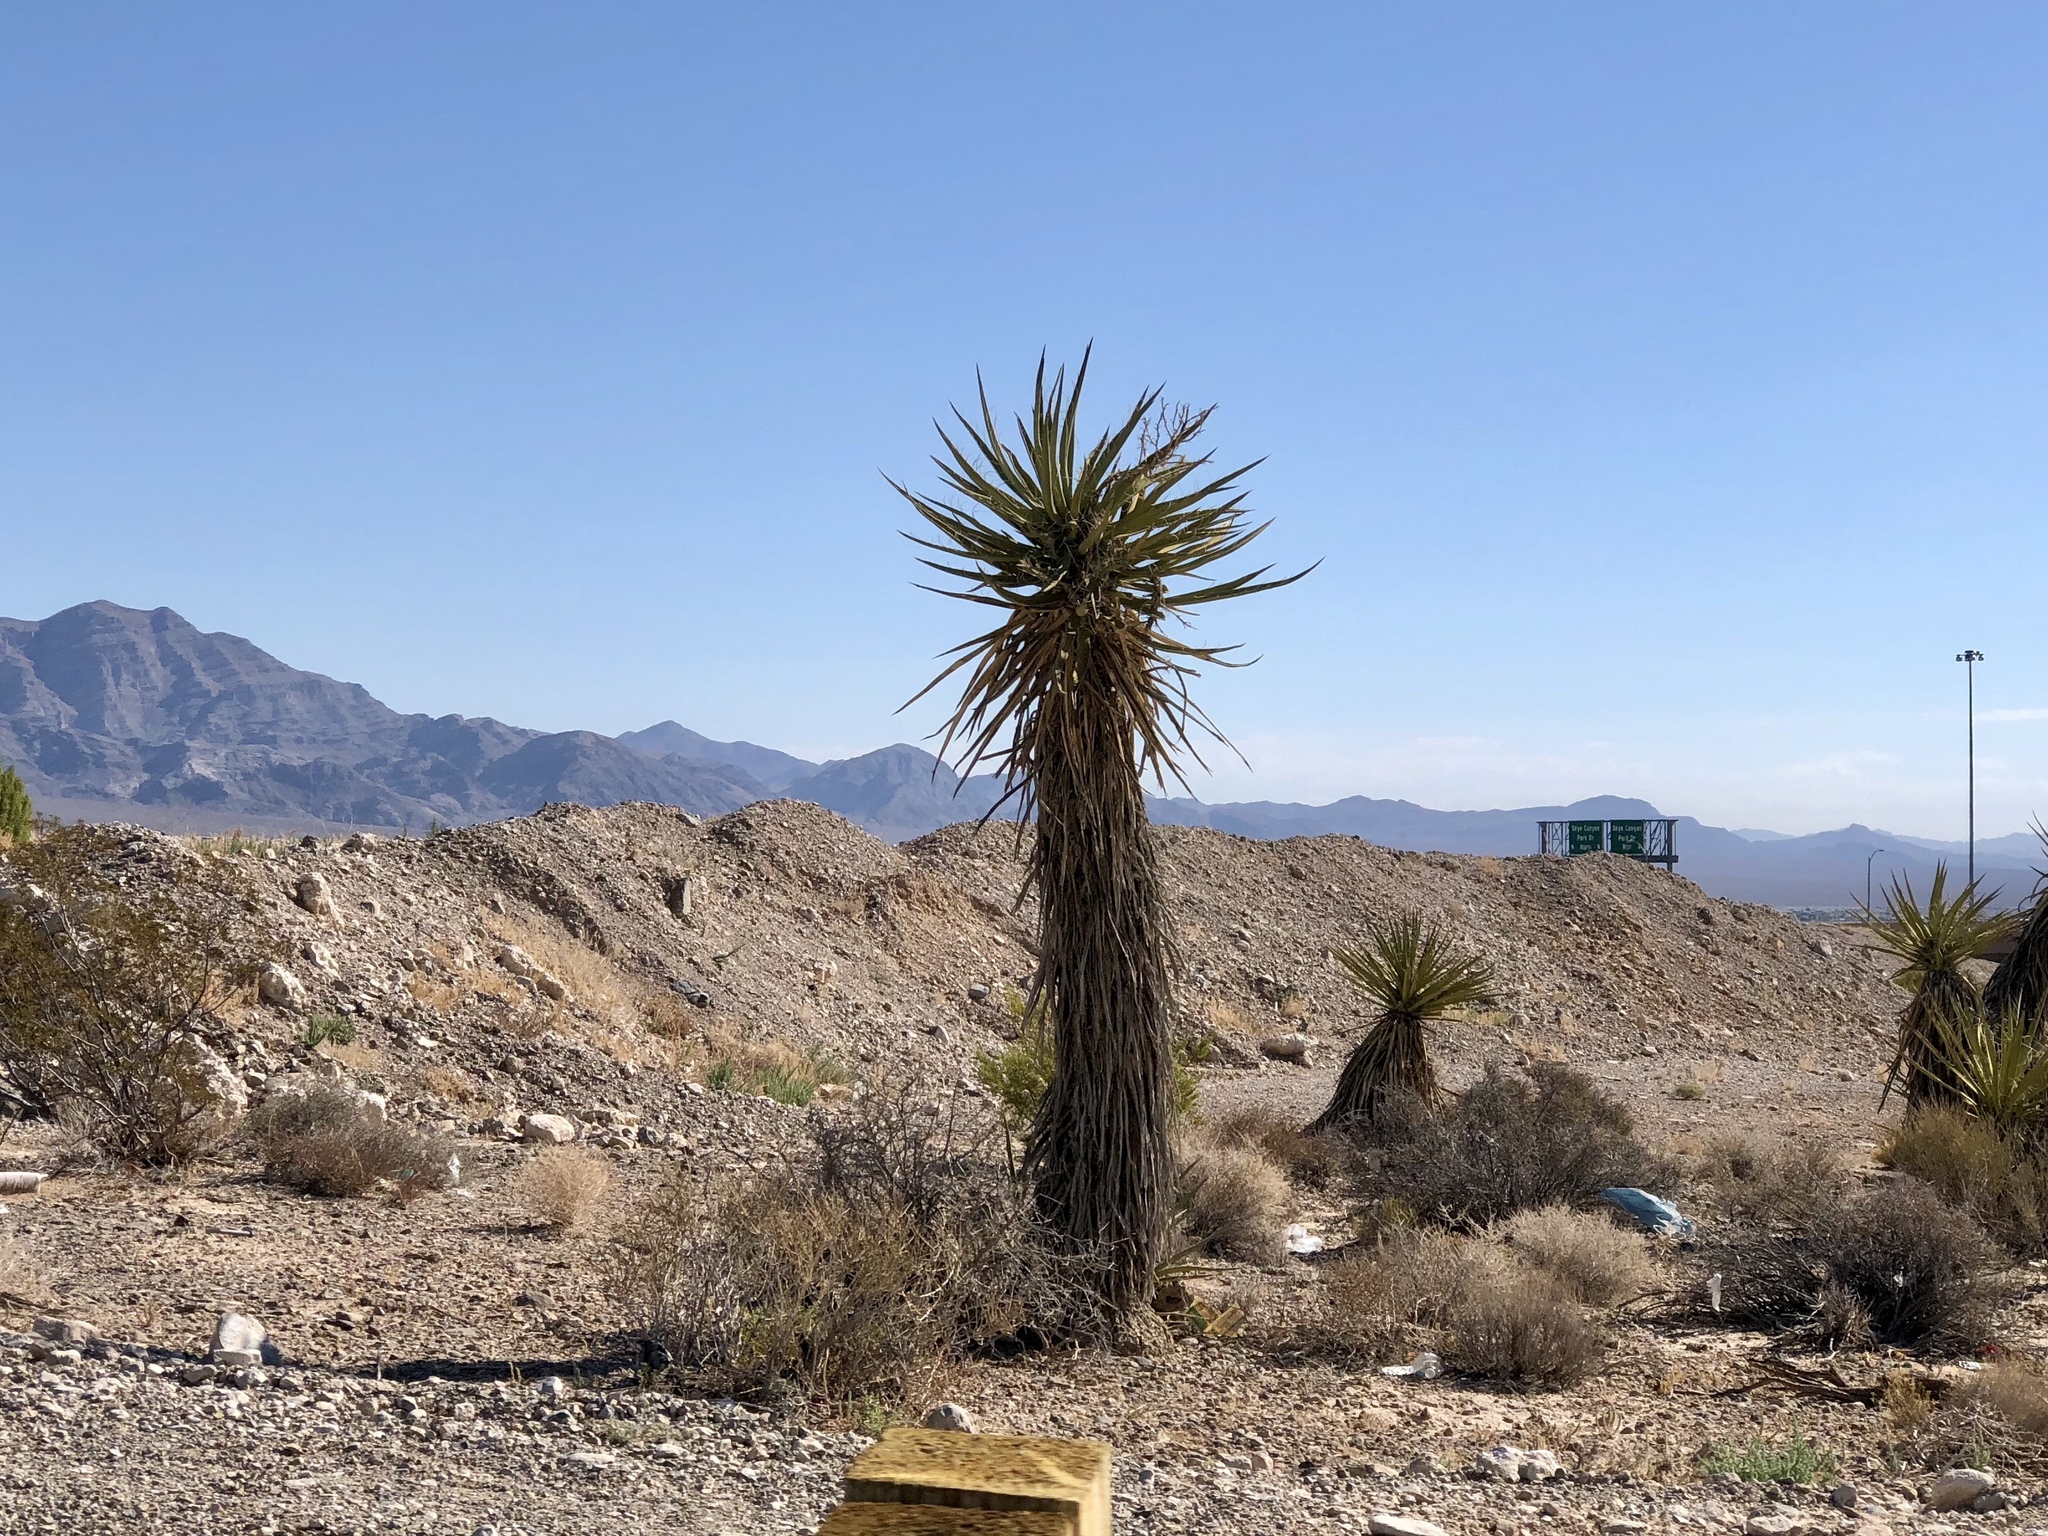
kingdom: Plantae
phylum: Tracheophyta
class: Liliopsida
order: Asparagales
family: Asparagaceae
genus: Yucca
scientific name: Yucca schidigera
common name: Mojave yucca
